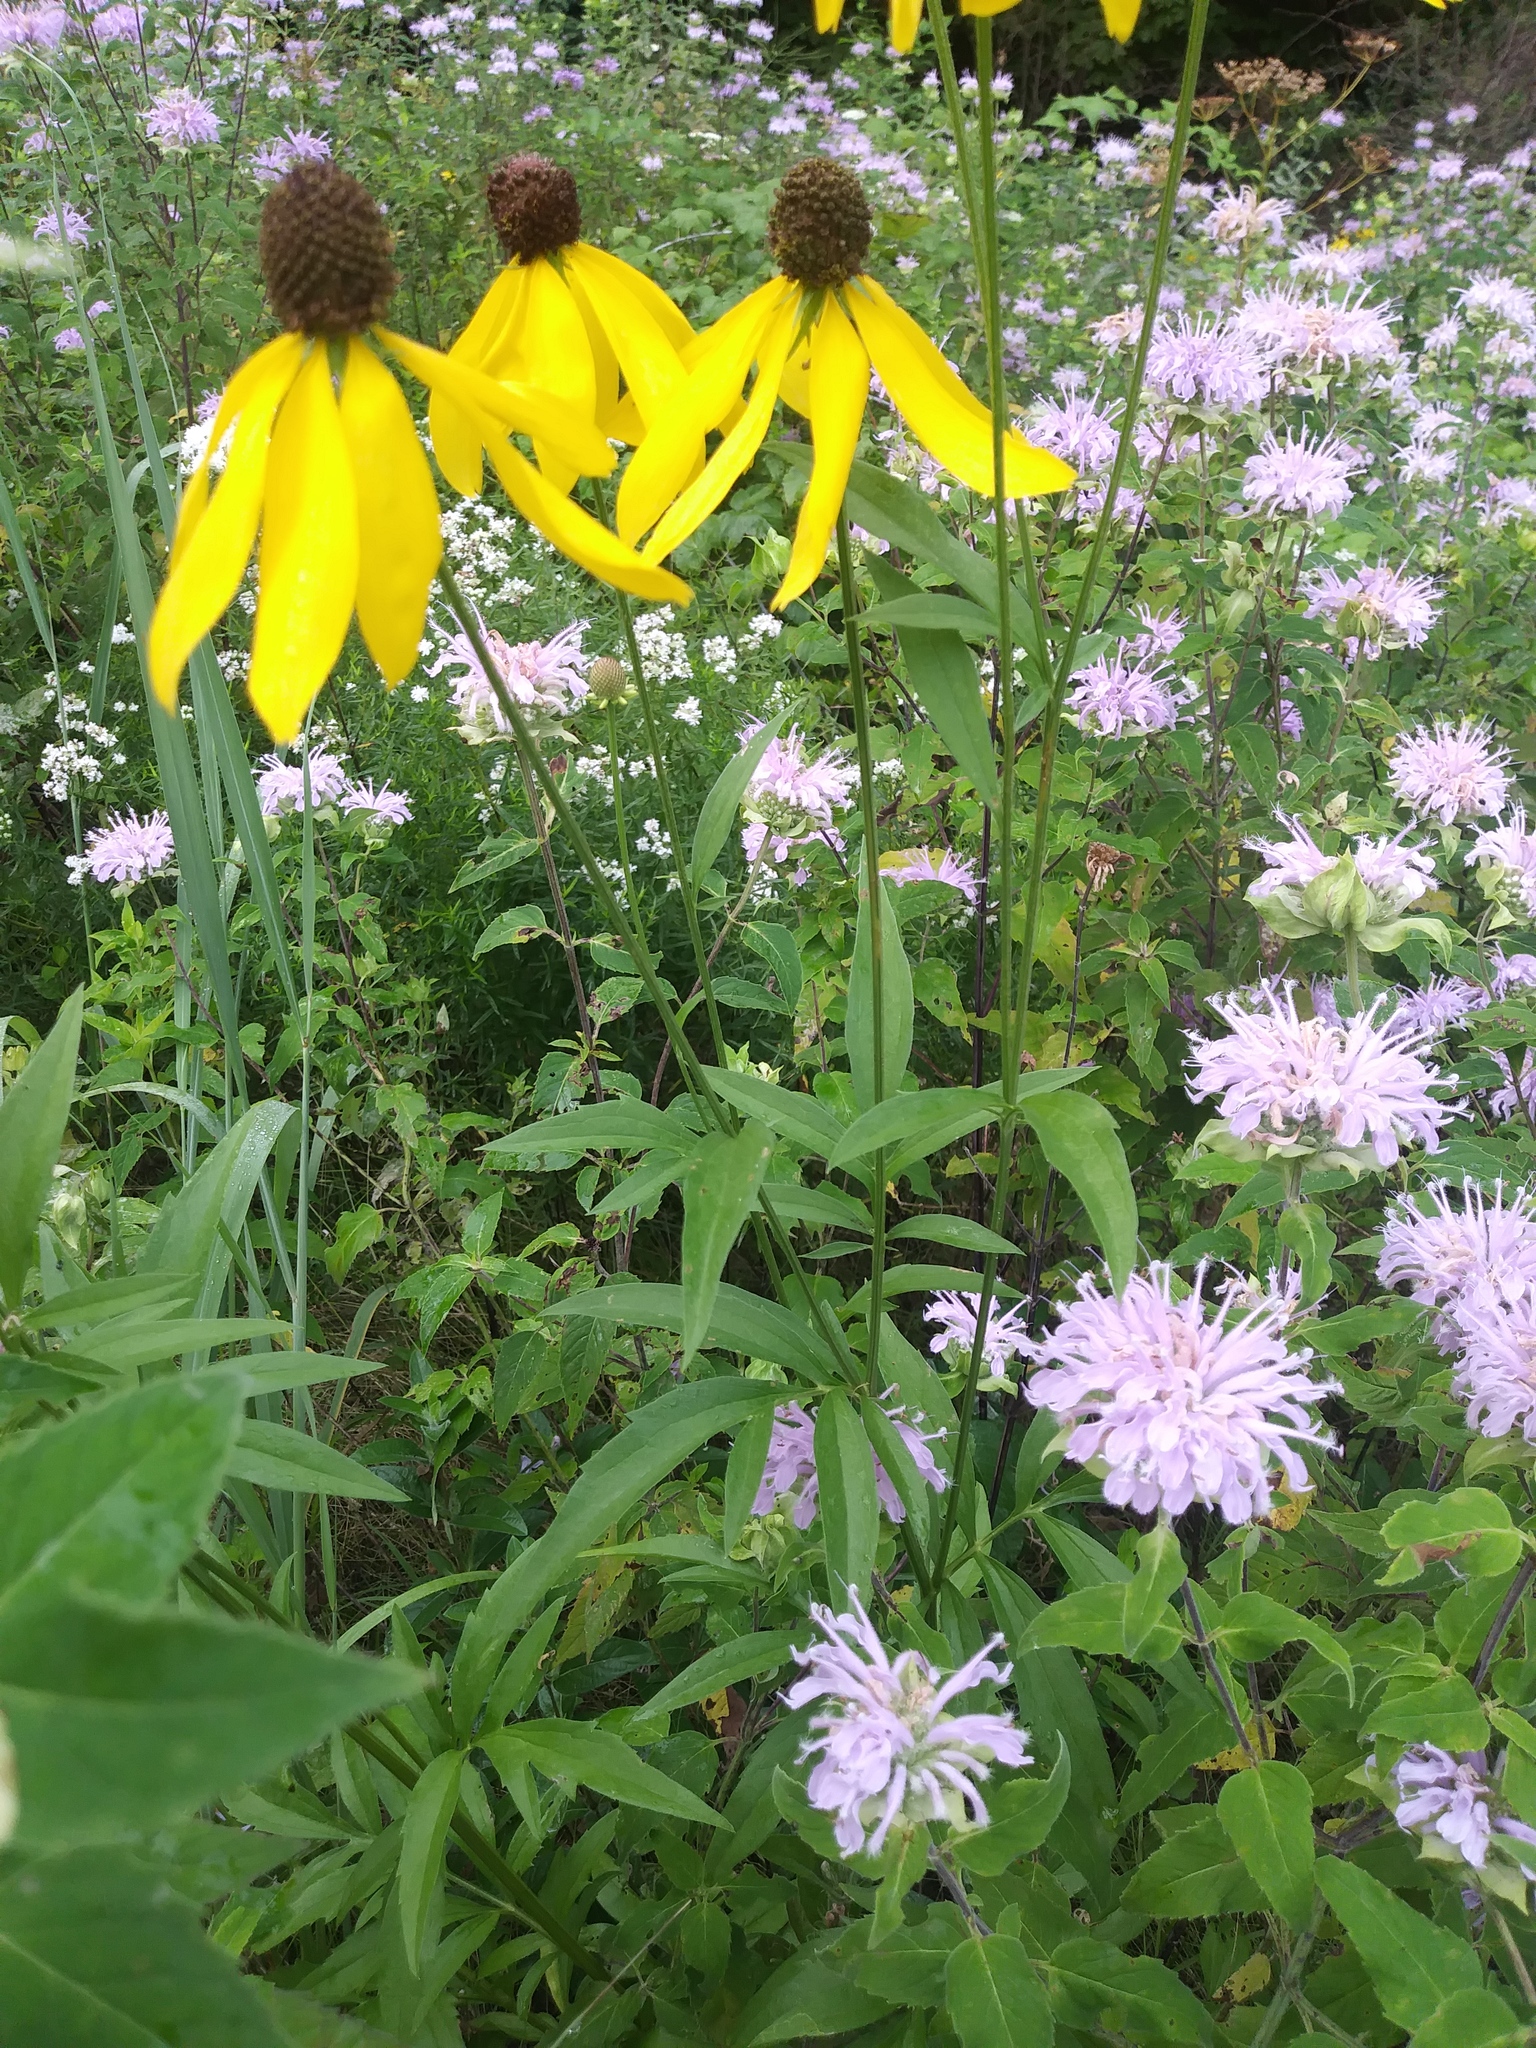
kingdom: Plantae
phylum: Tracheophyta
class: Magnoliopsida
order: Asterales
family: Asteraceae
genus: Ratibida
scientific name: Ratibida pinnata
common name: Drooping prairie-coneflower
